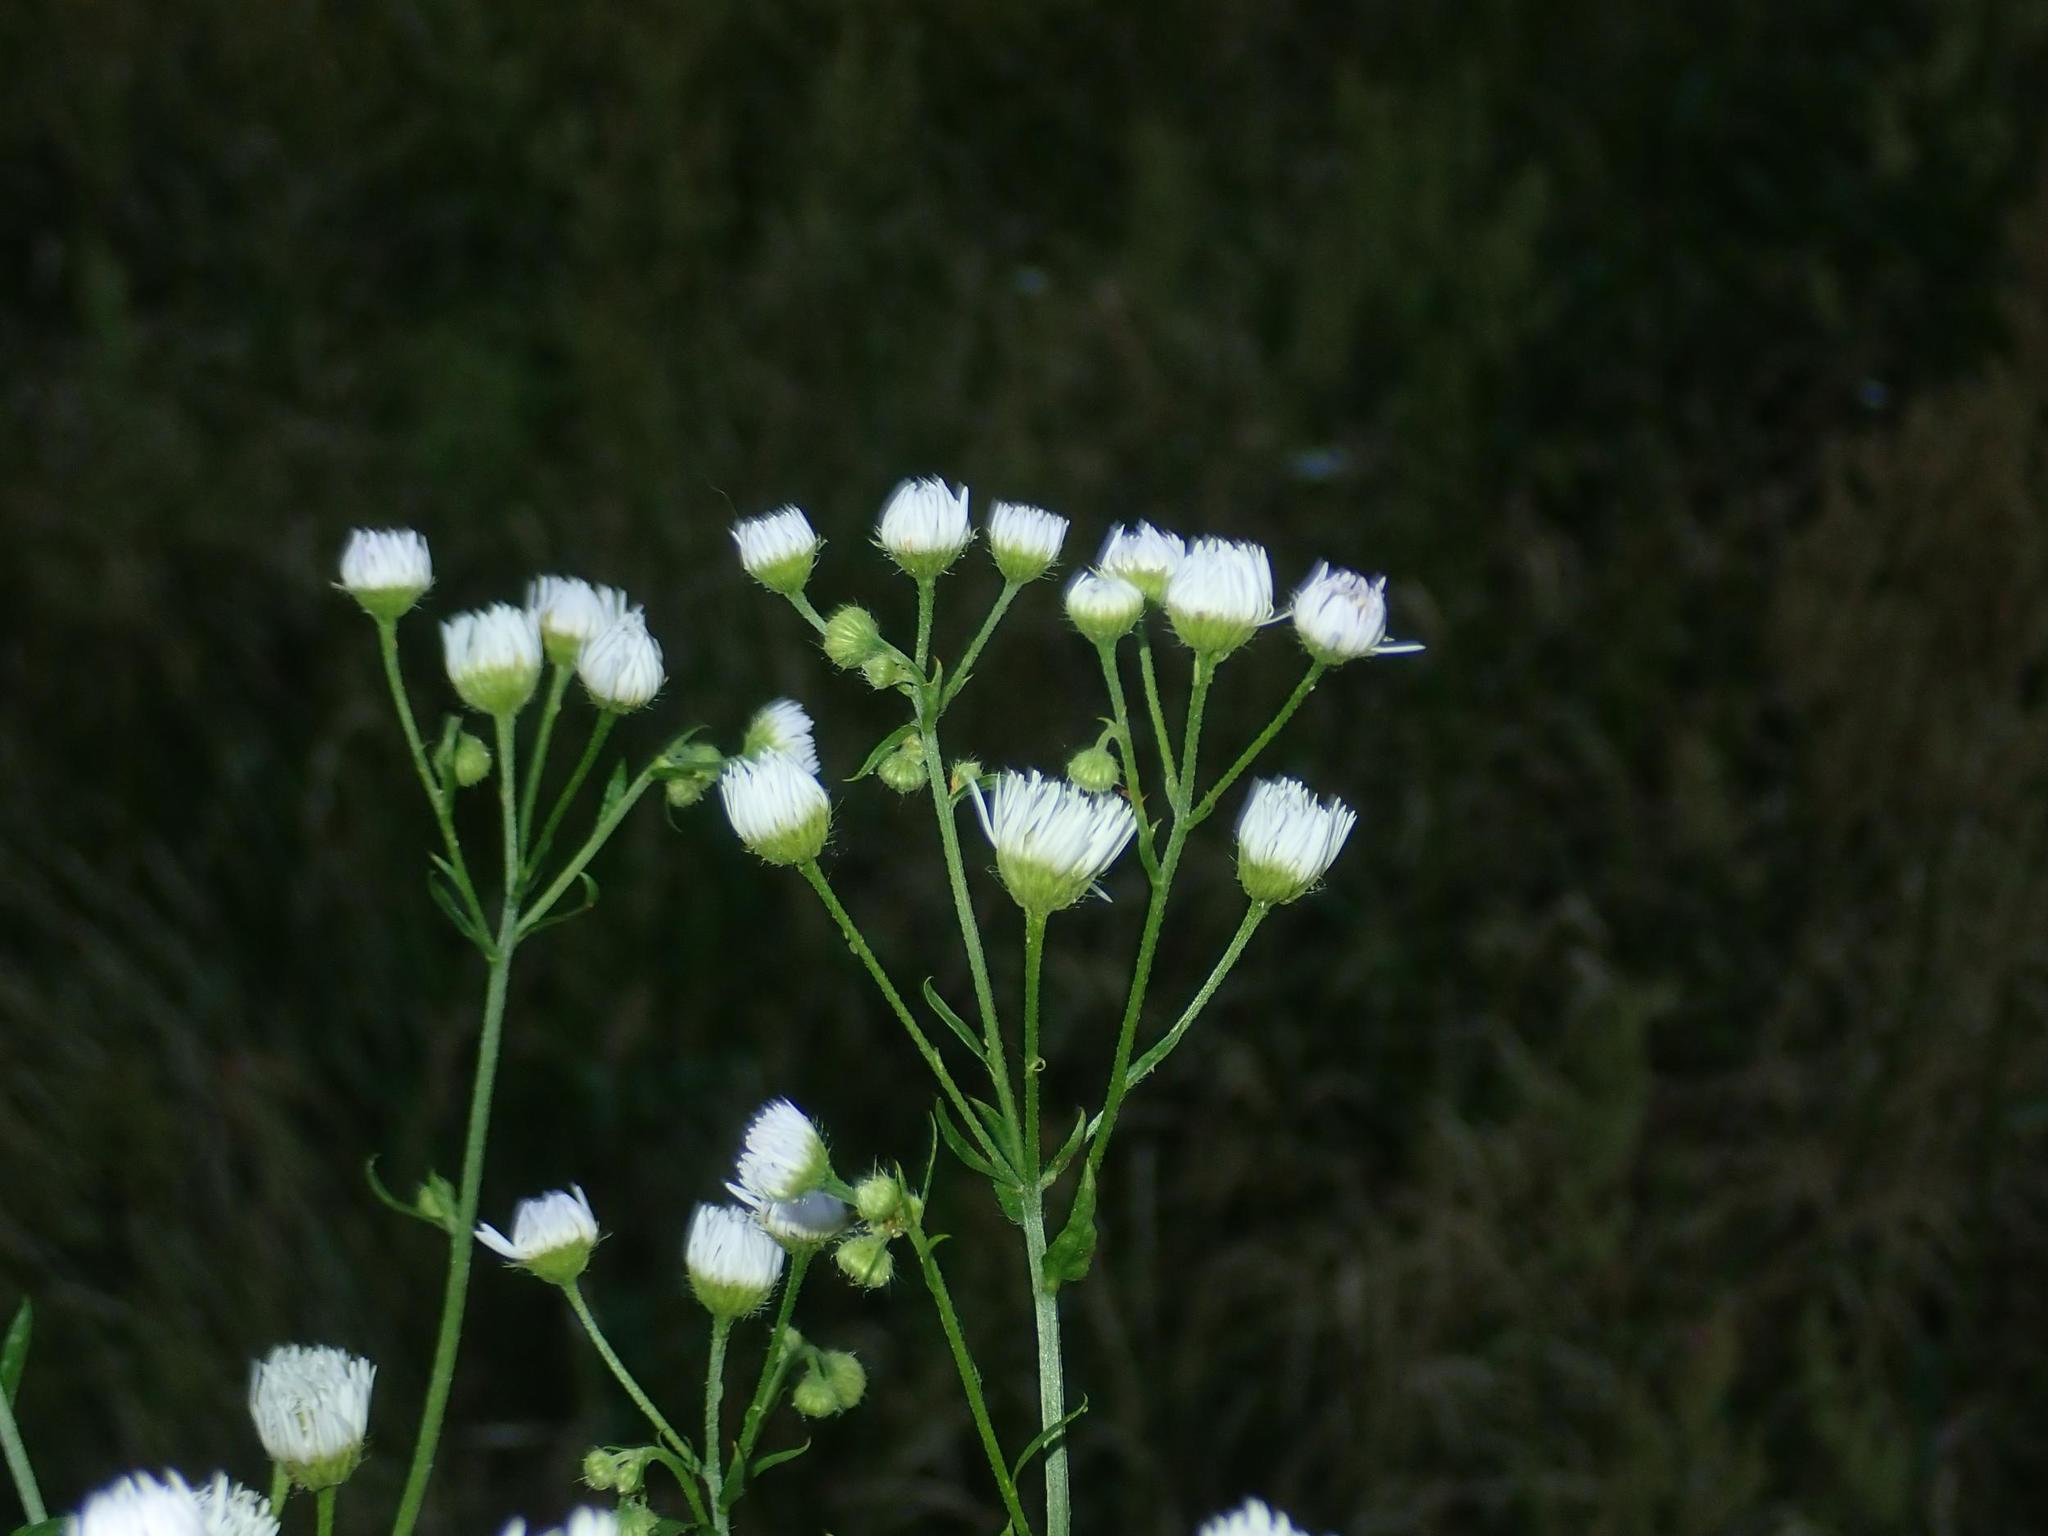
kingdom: Plantae
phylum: Tracheophyta
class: Magnoliopsida
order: Asterales
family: Asteraceae
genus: Erigeron
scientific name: Erigeron annuus
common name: Tall fleabane
